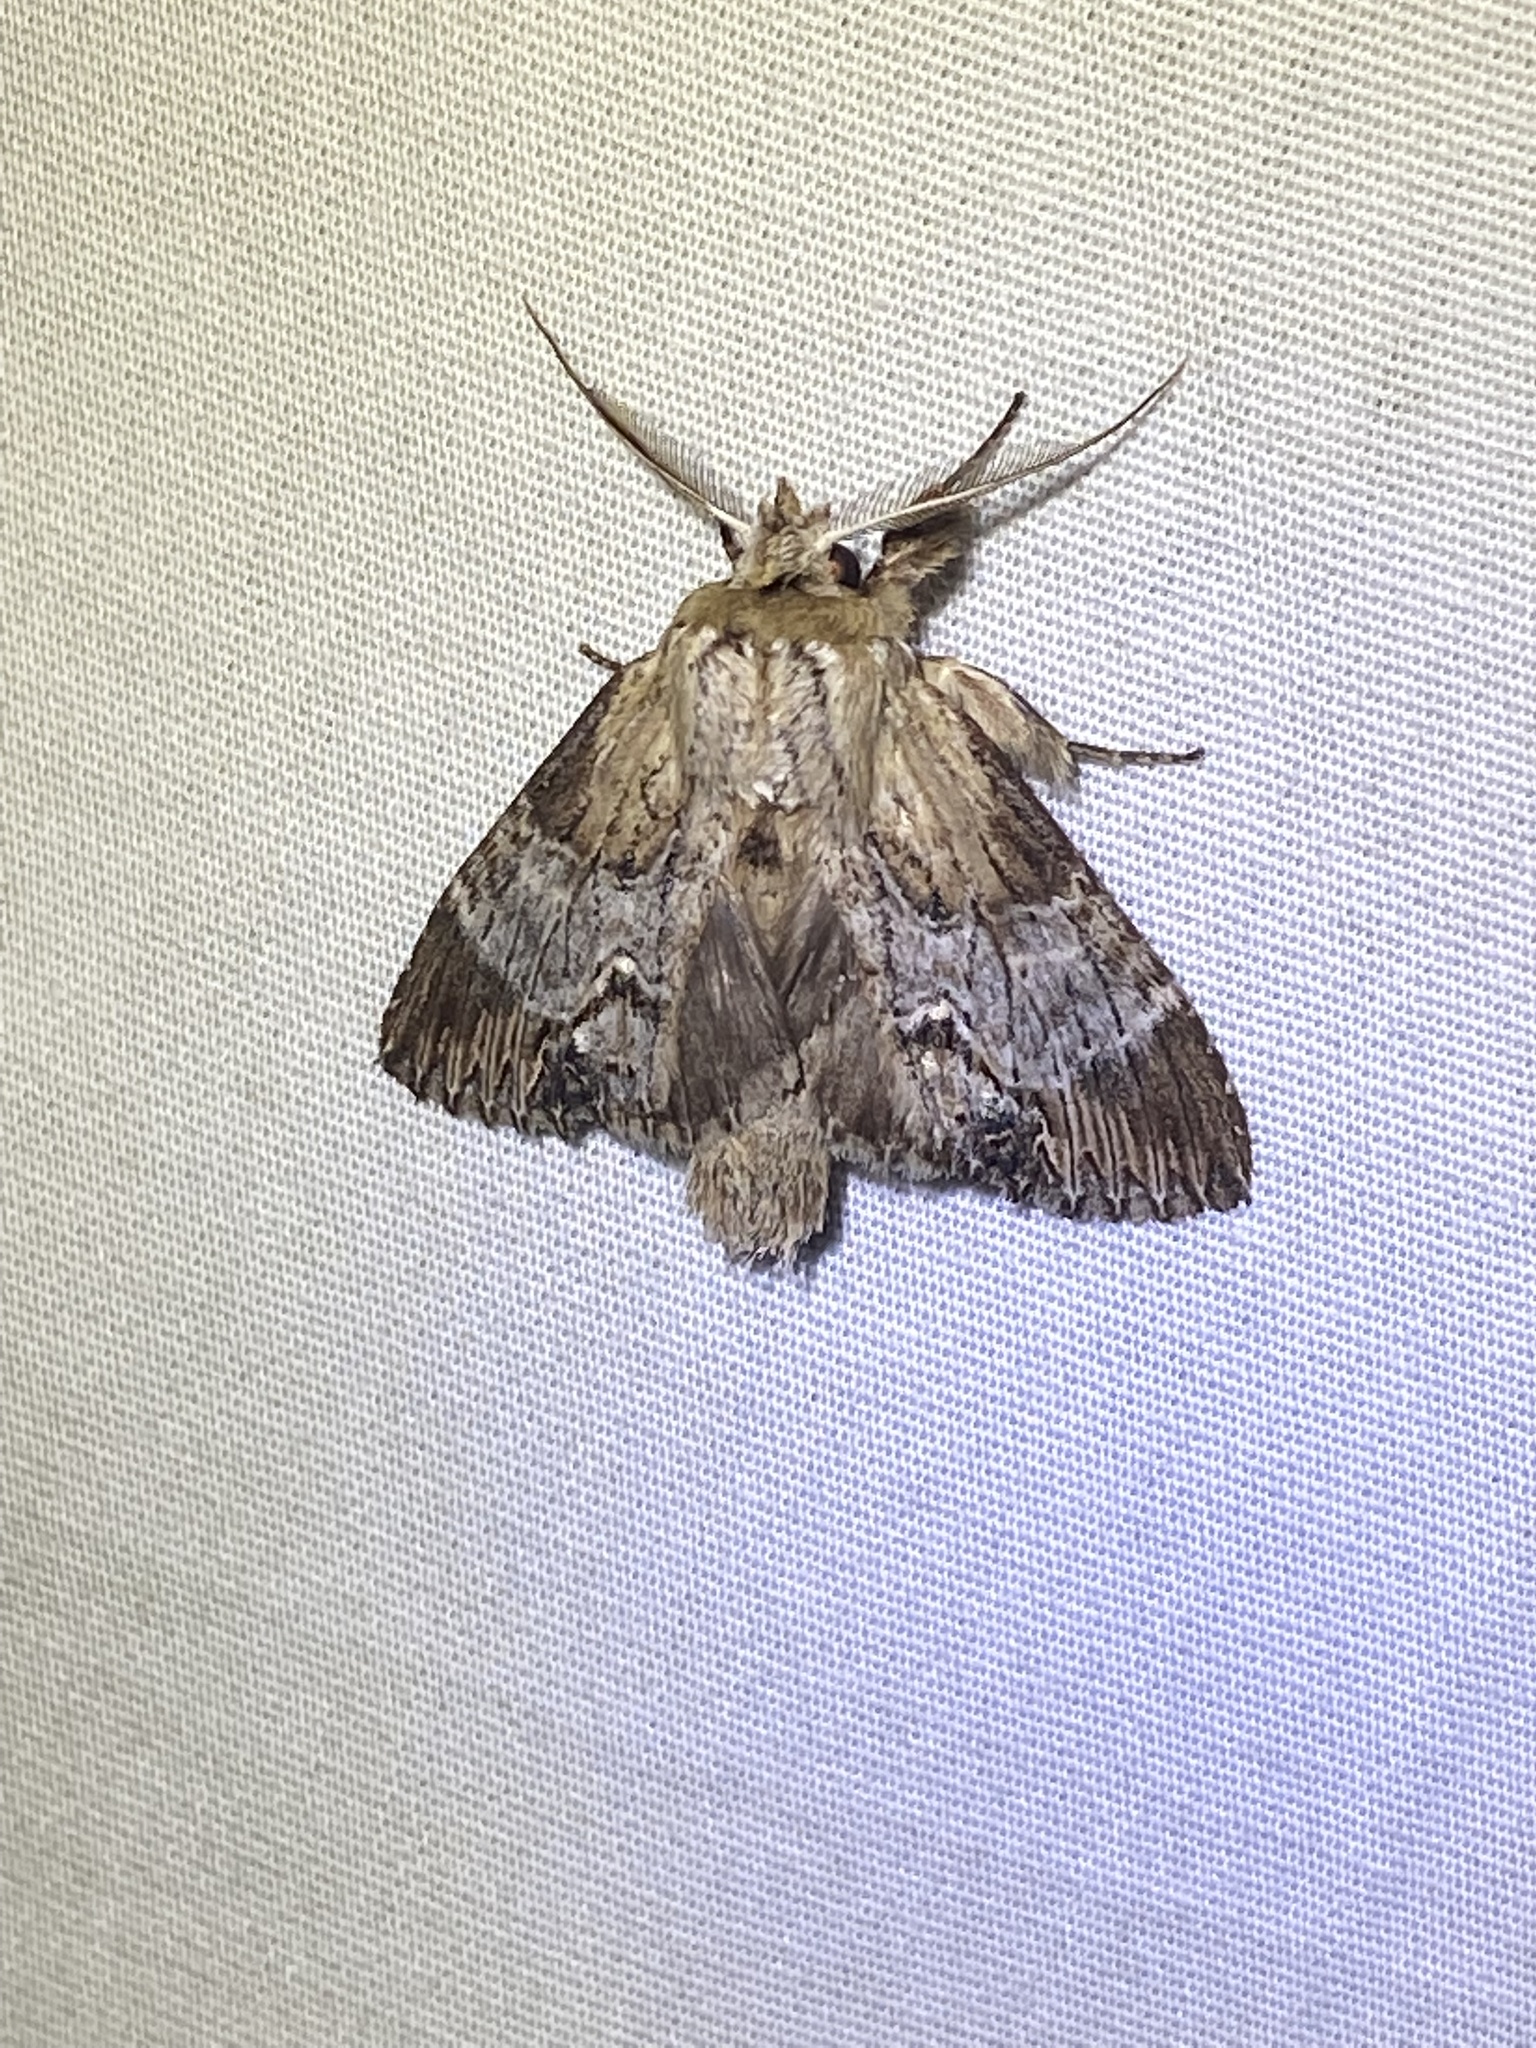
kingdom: Animalia
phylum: Arthropoda
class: Insecta
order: Lepidoptera
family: Notodontidae
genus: Dasylophia
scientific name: Dasylophia thyatiroides
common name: Gray-patched prominent
